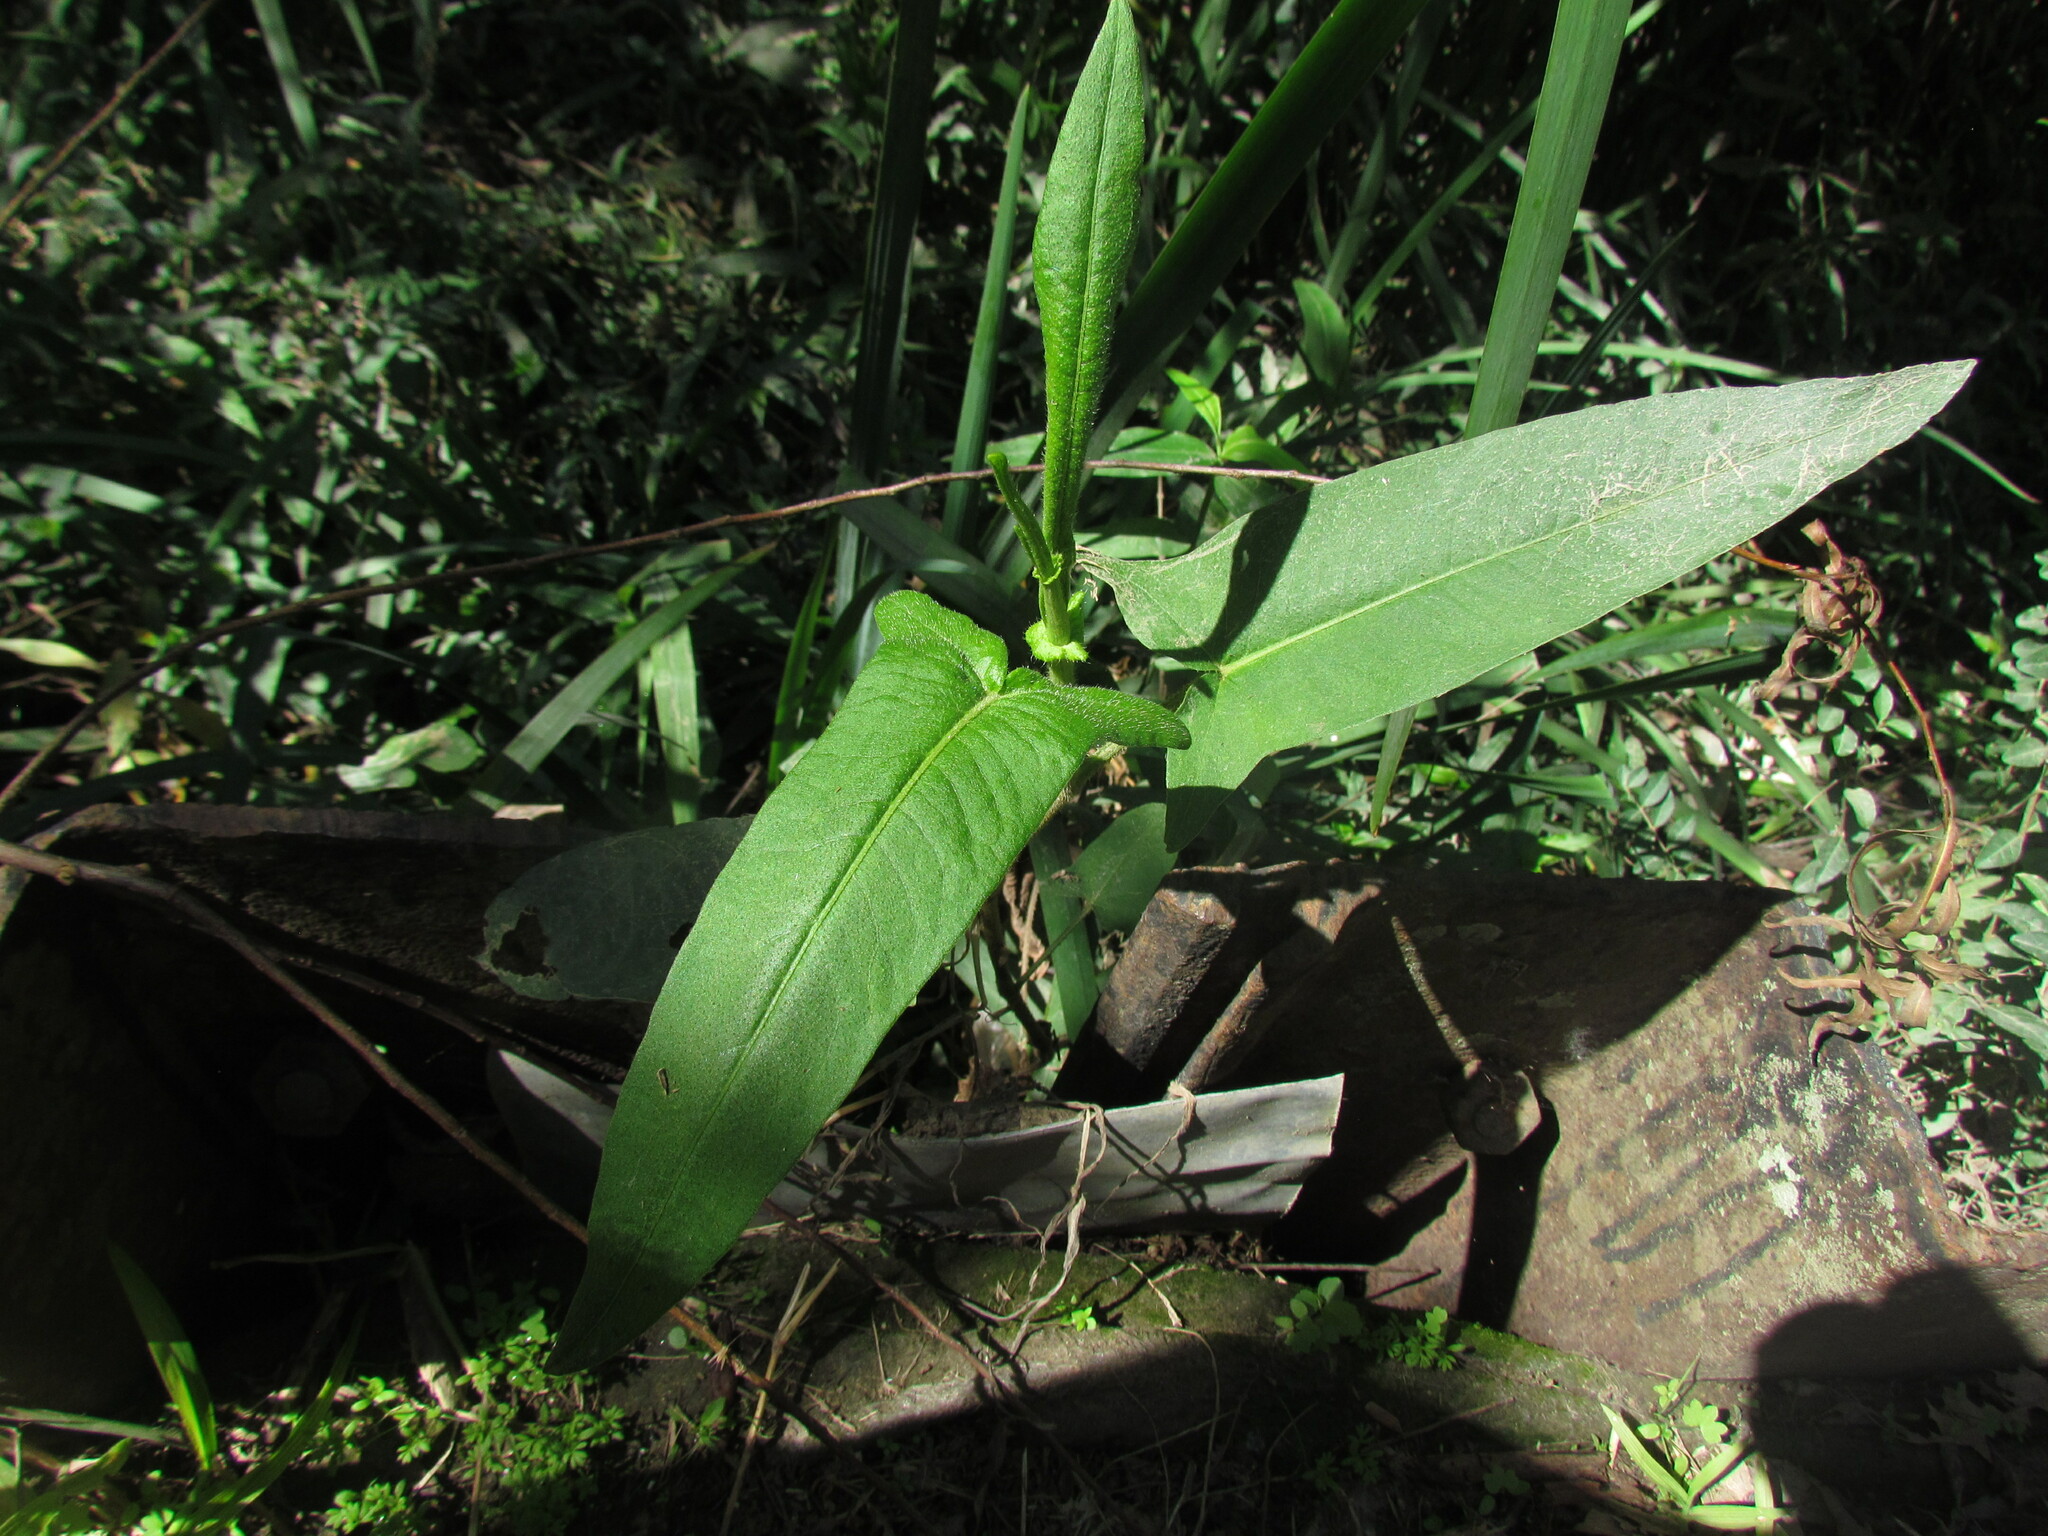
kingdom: Plantae
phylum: Tracheophyta
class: Magnoliopsida
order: Caryophyllales
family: Polygonaceae
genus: Persicaria
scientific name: Persicaria stelligera
